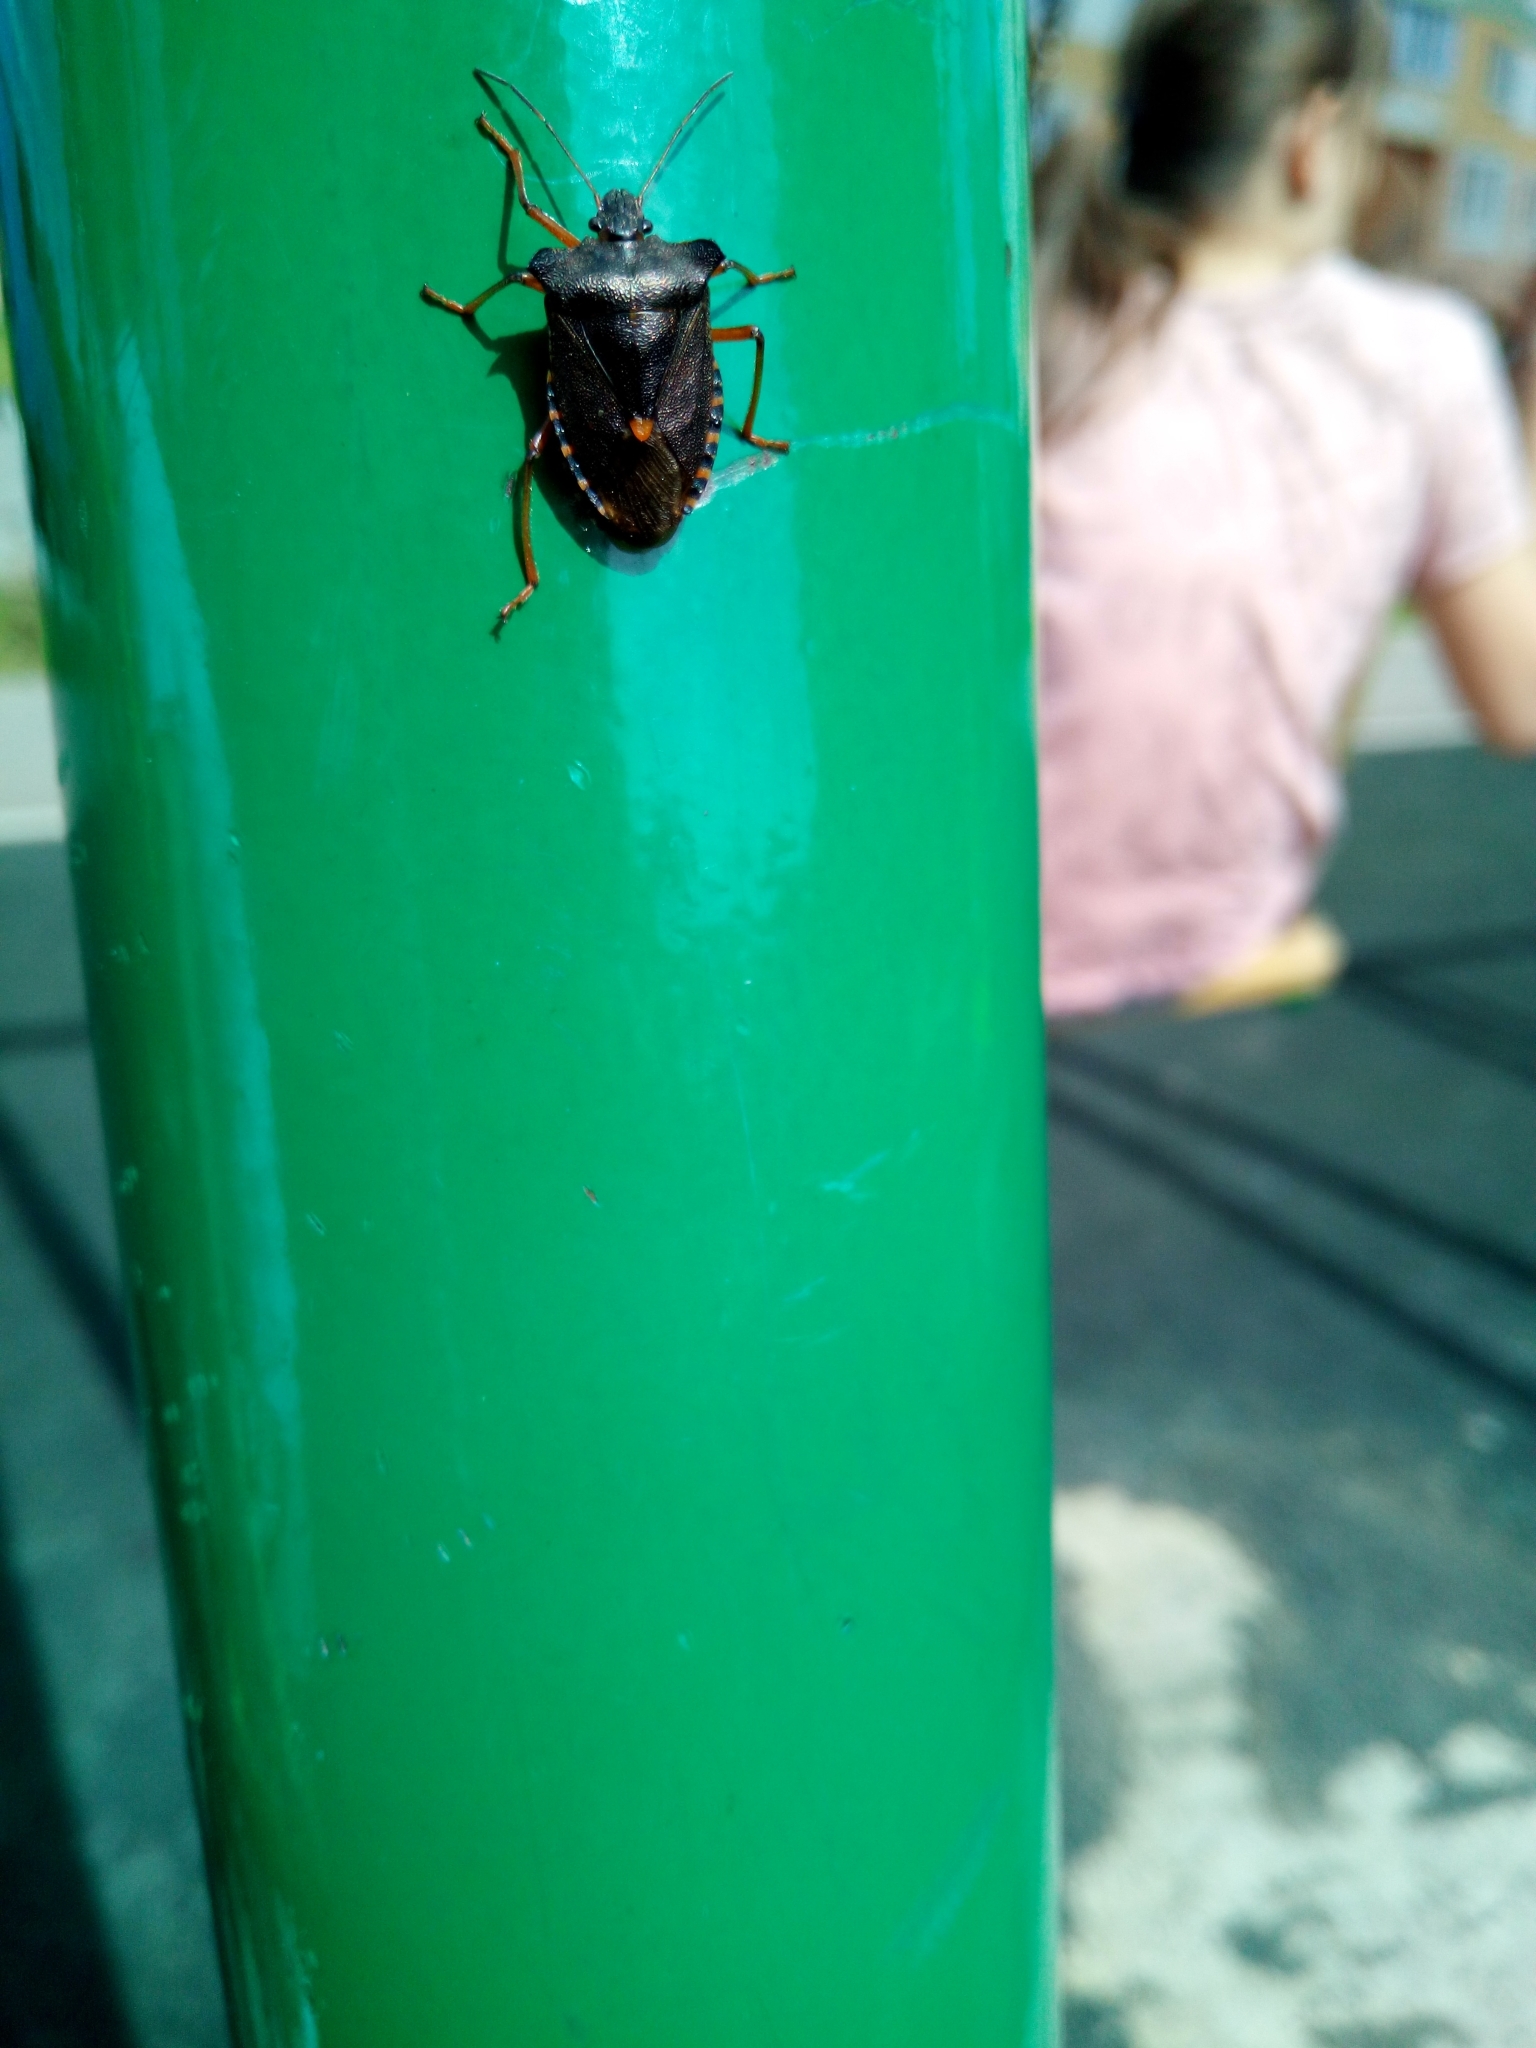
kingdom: Animalia
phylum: Arthropoda
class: Insecta
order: Hemiptera
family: Pentatomidae
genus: Pentatoma
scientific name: Pentatoma rufipes
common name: Forest bug
